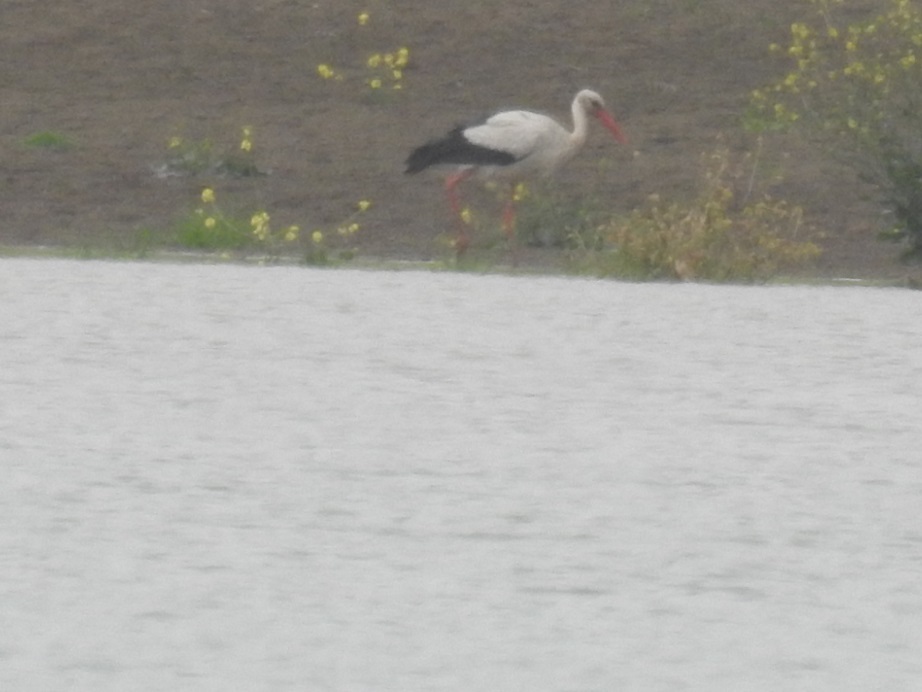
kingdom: Animalia
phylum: Chordata
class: Aves
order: Ciconiiformes
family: Ciconiidae
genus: Ciconia
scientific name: Ciconia ciconia
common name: White stork
